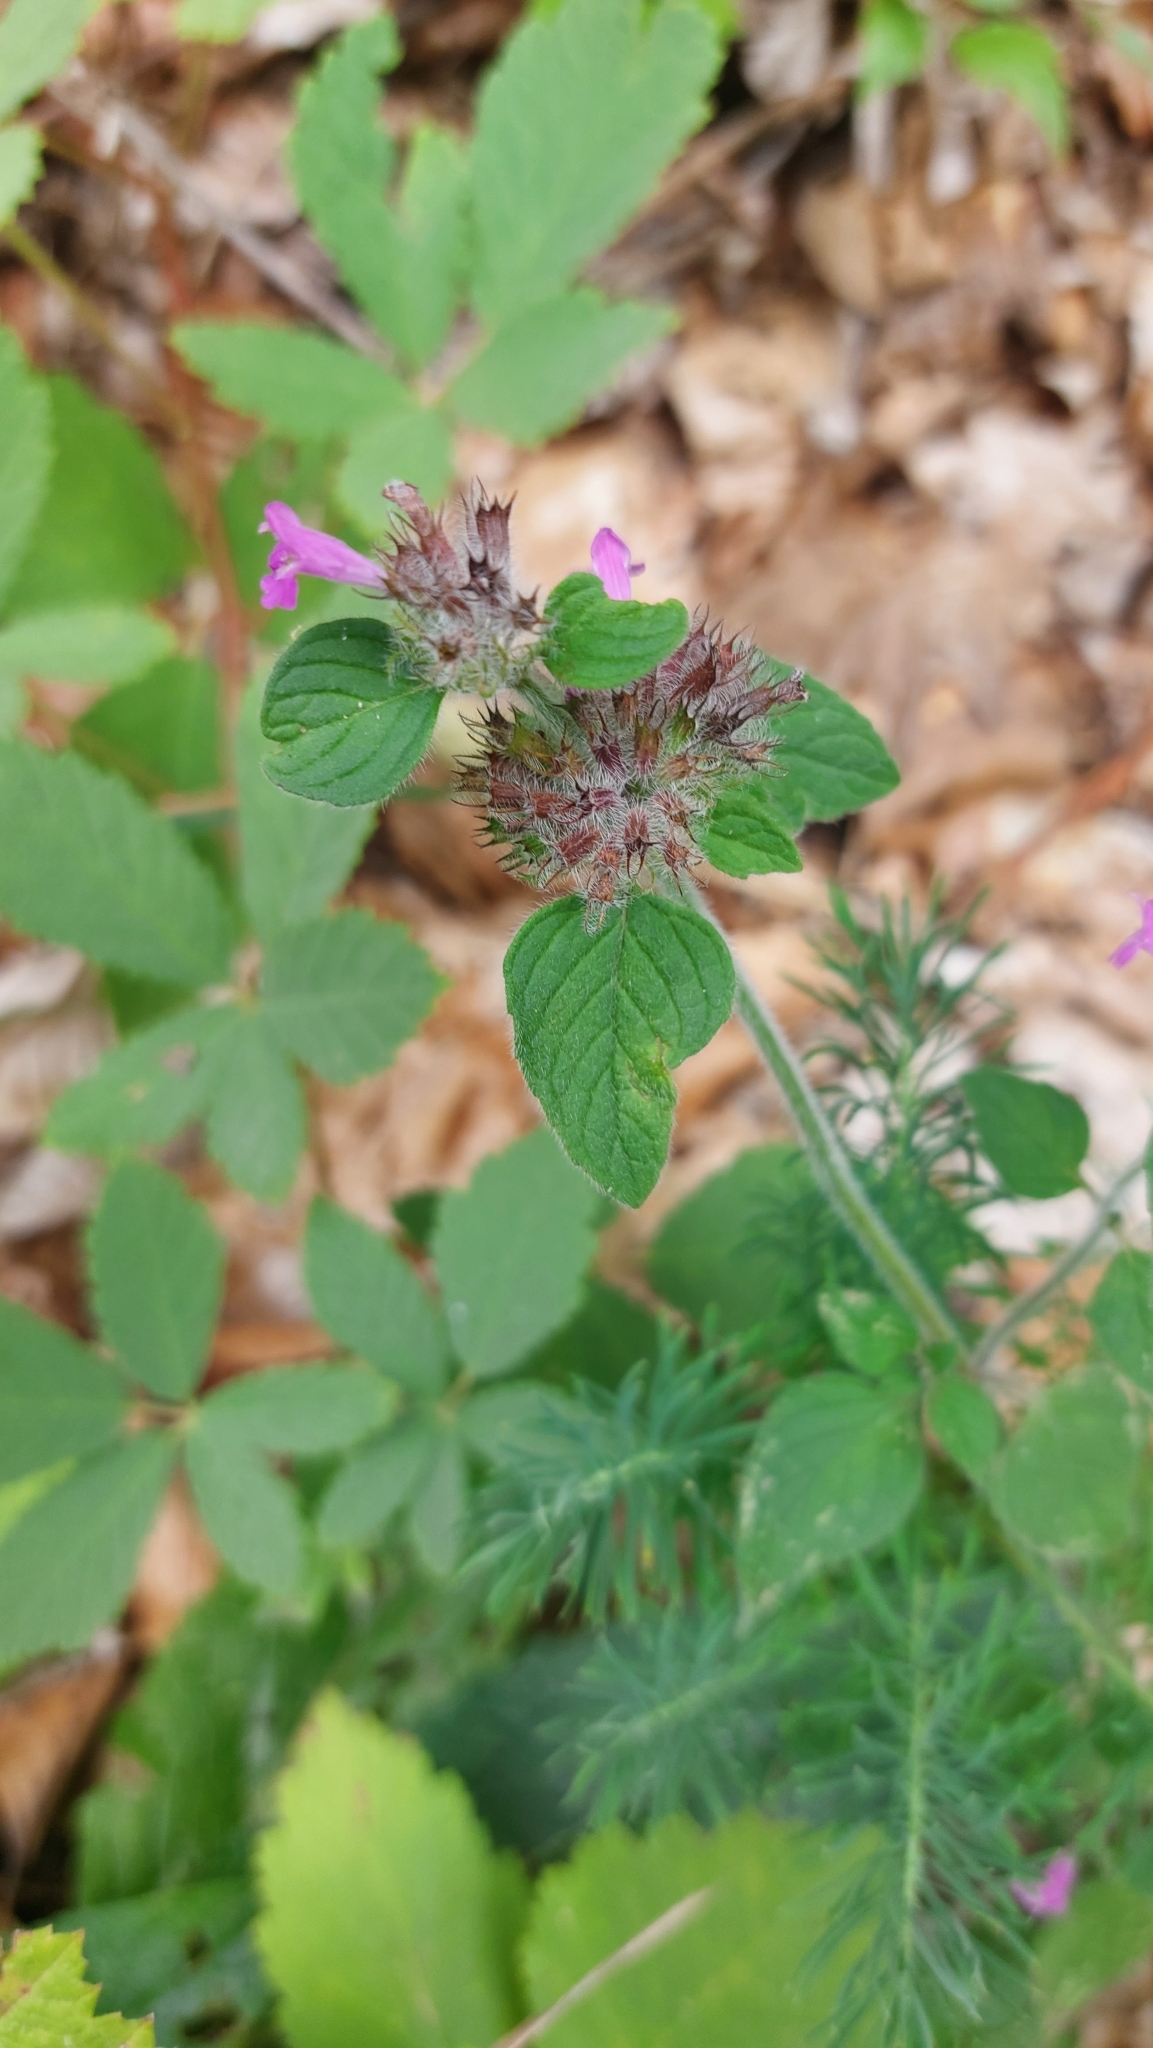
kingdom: Plantae
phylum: Tracheophyta
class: Magnoliopsida
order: Lamiales
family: Lamiaceae
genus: Clinopodium
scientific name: Clinopodium vulgare
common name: Wild basil
